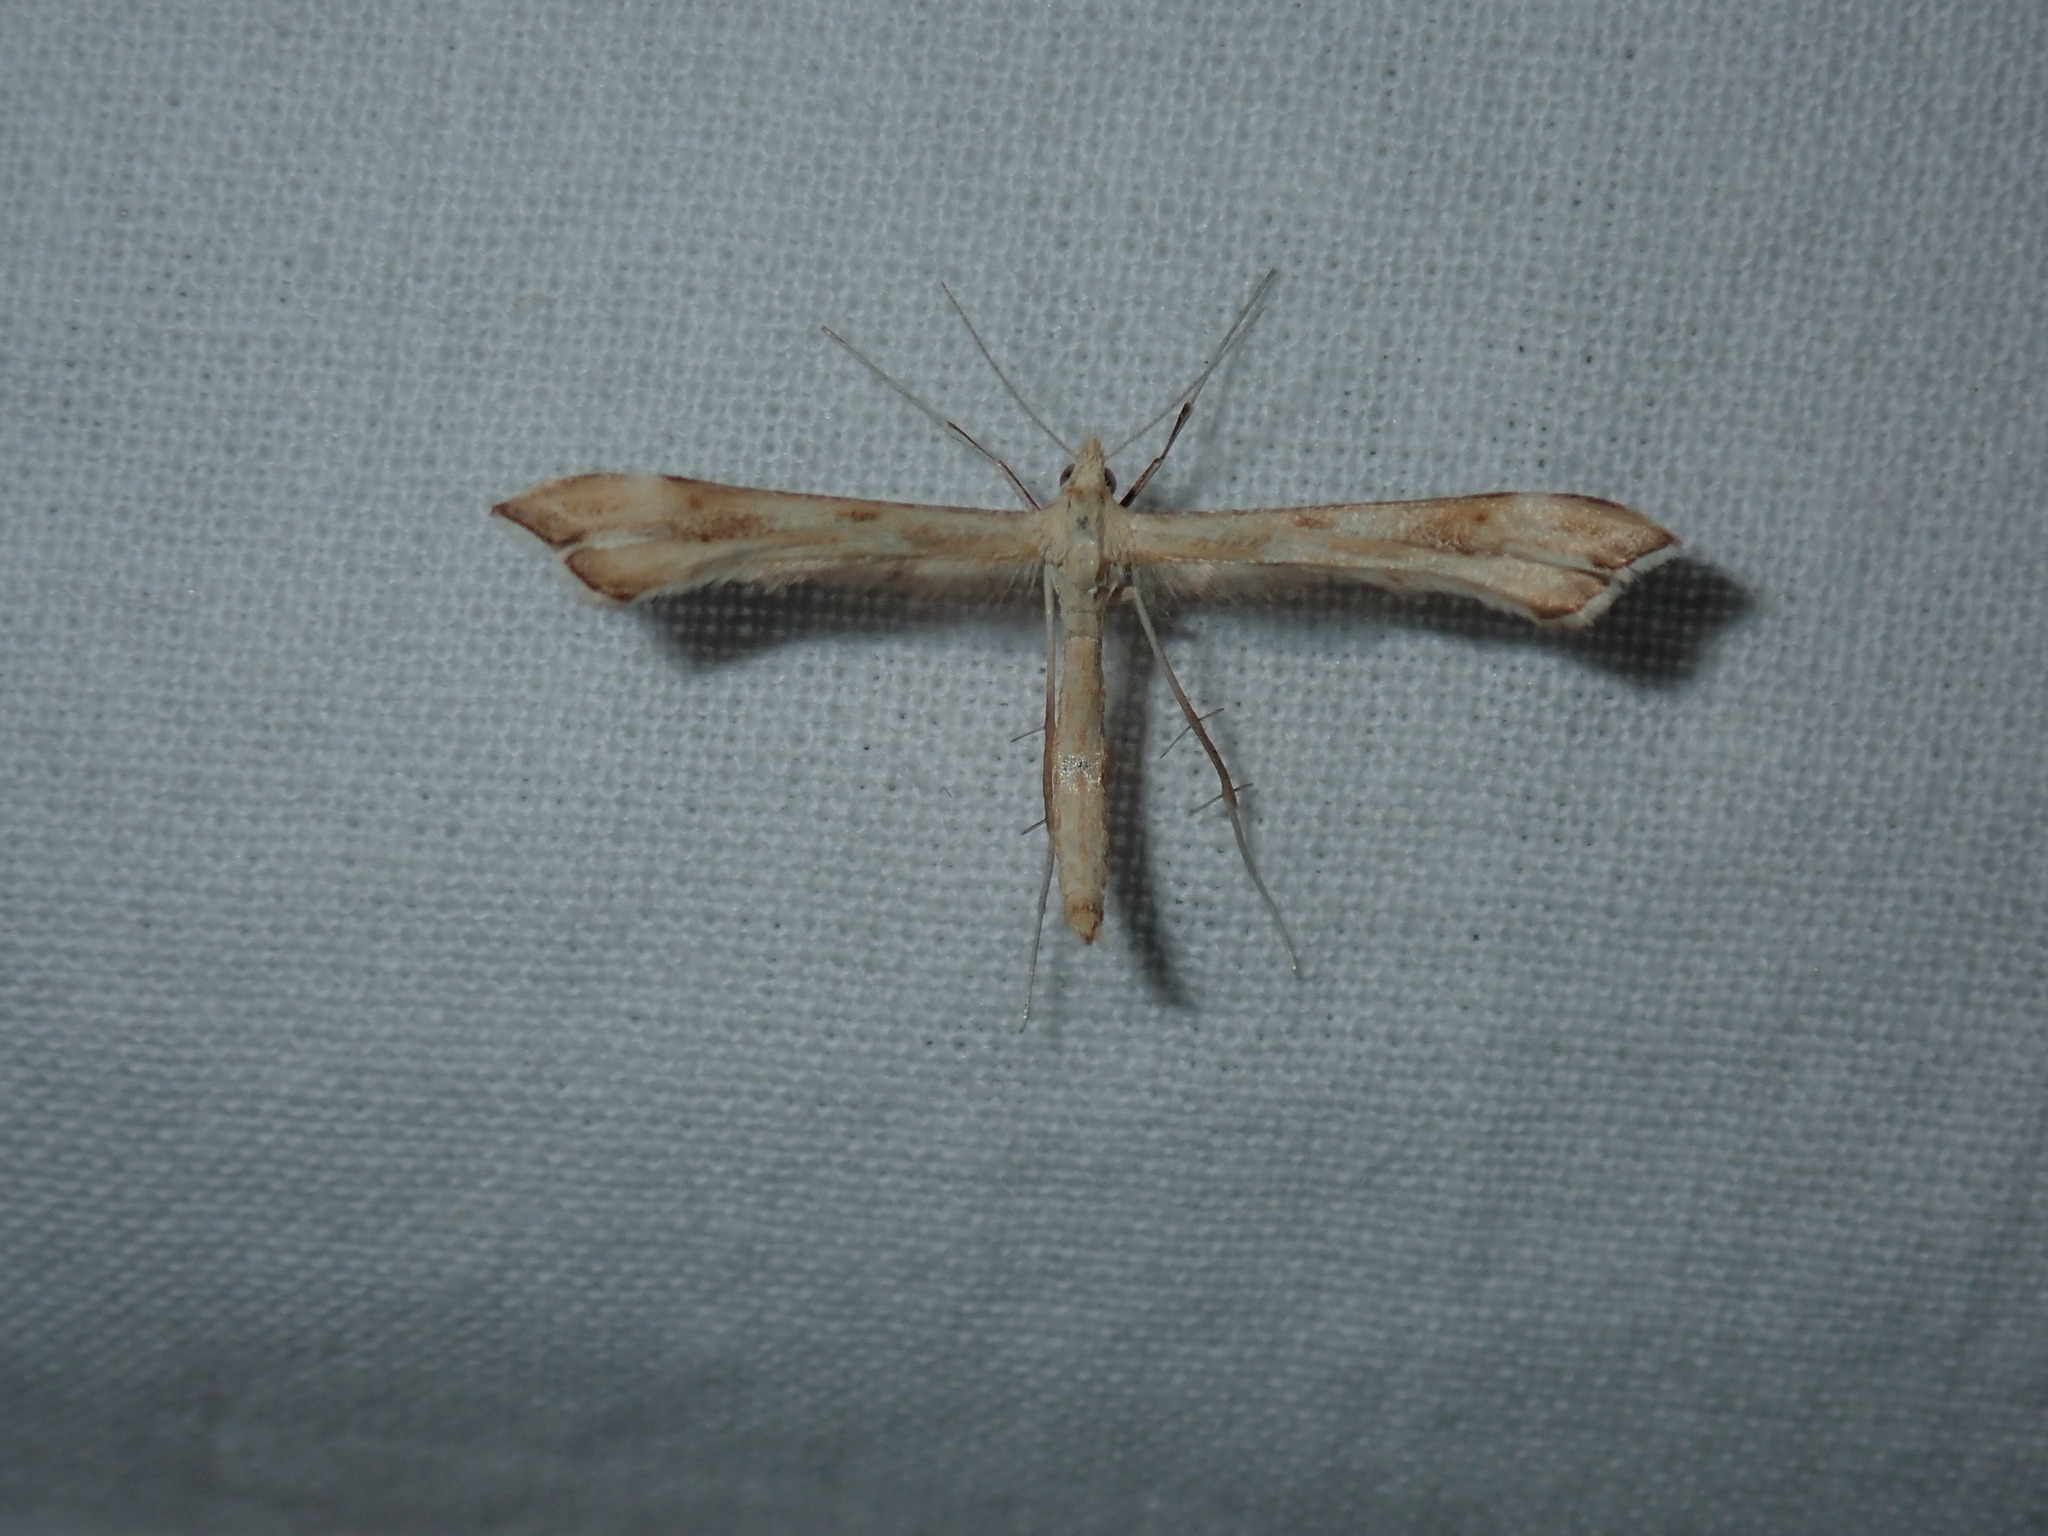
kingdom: Animalia
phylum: Arthropoda
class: Insecta
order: Lepidoptera
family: Pterophoridae
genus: Gillmeria
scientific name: Gillmeria pallidactyla
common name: Yarrow plume
